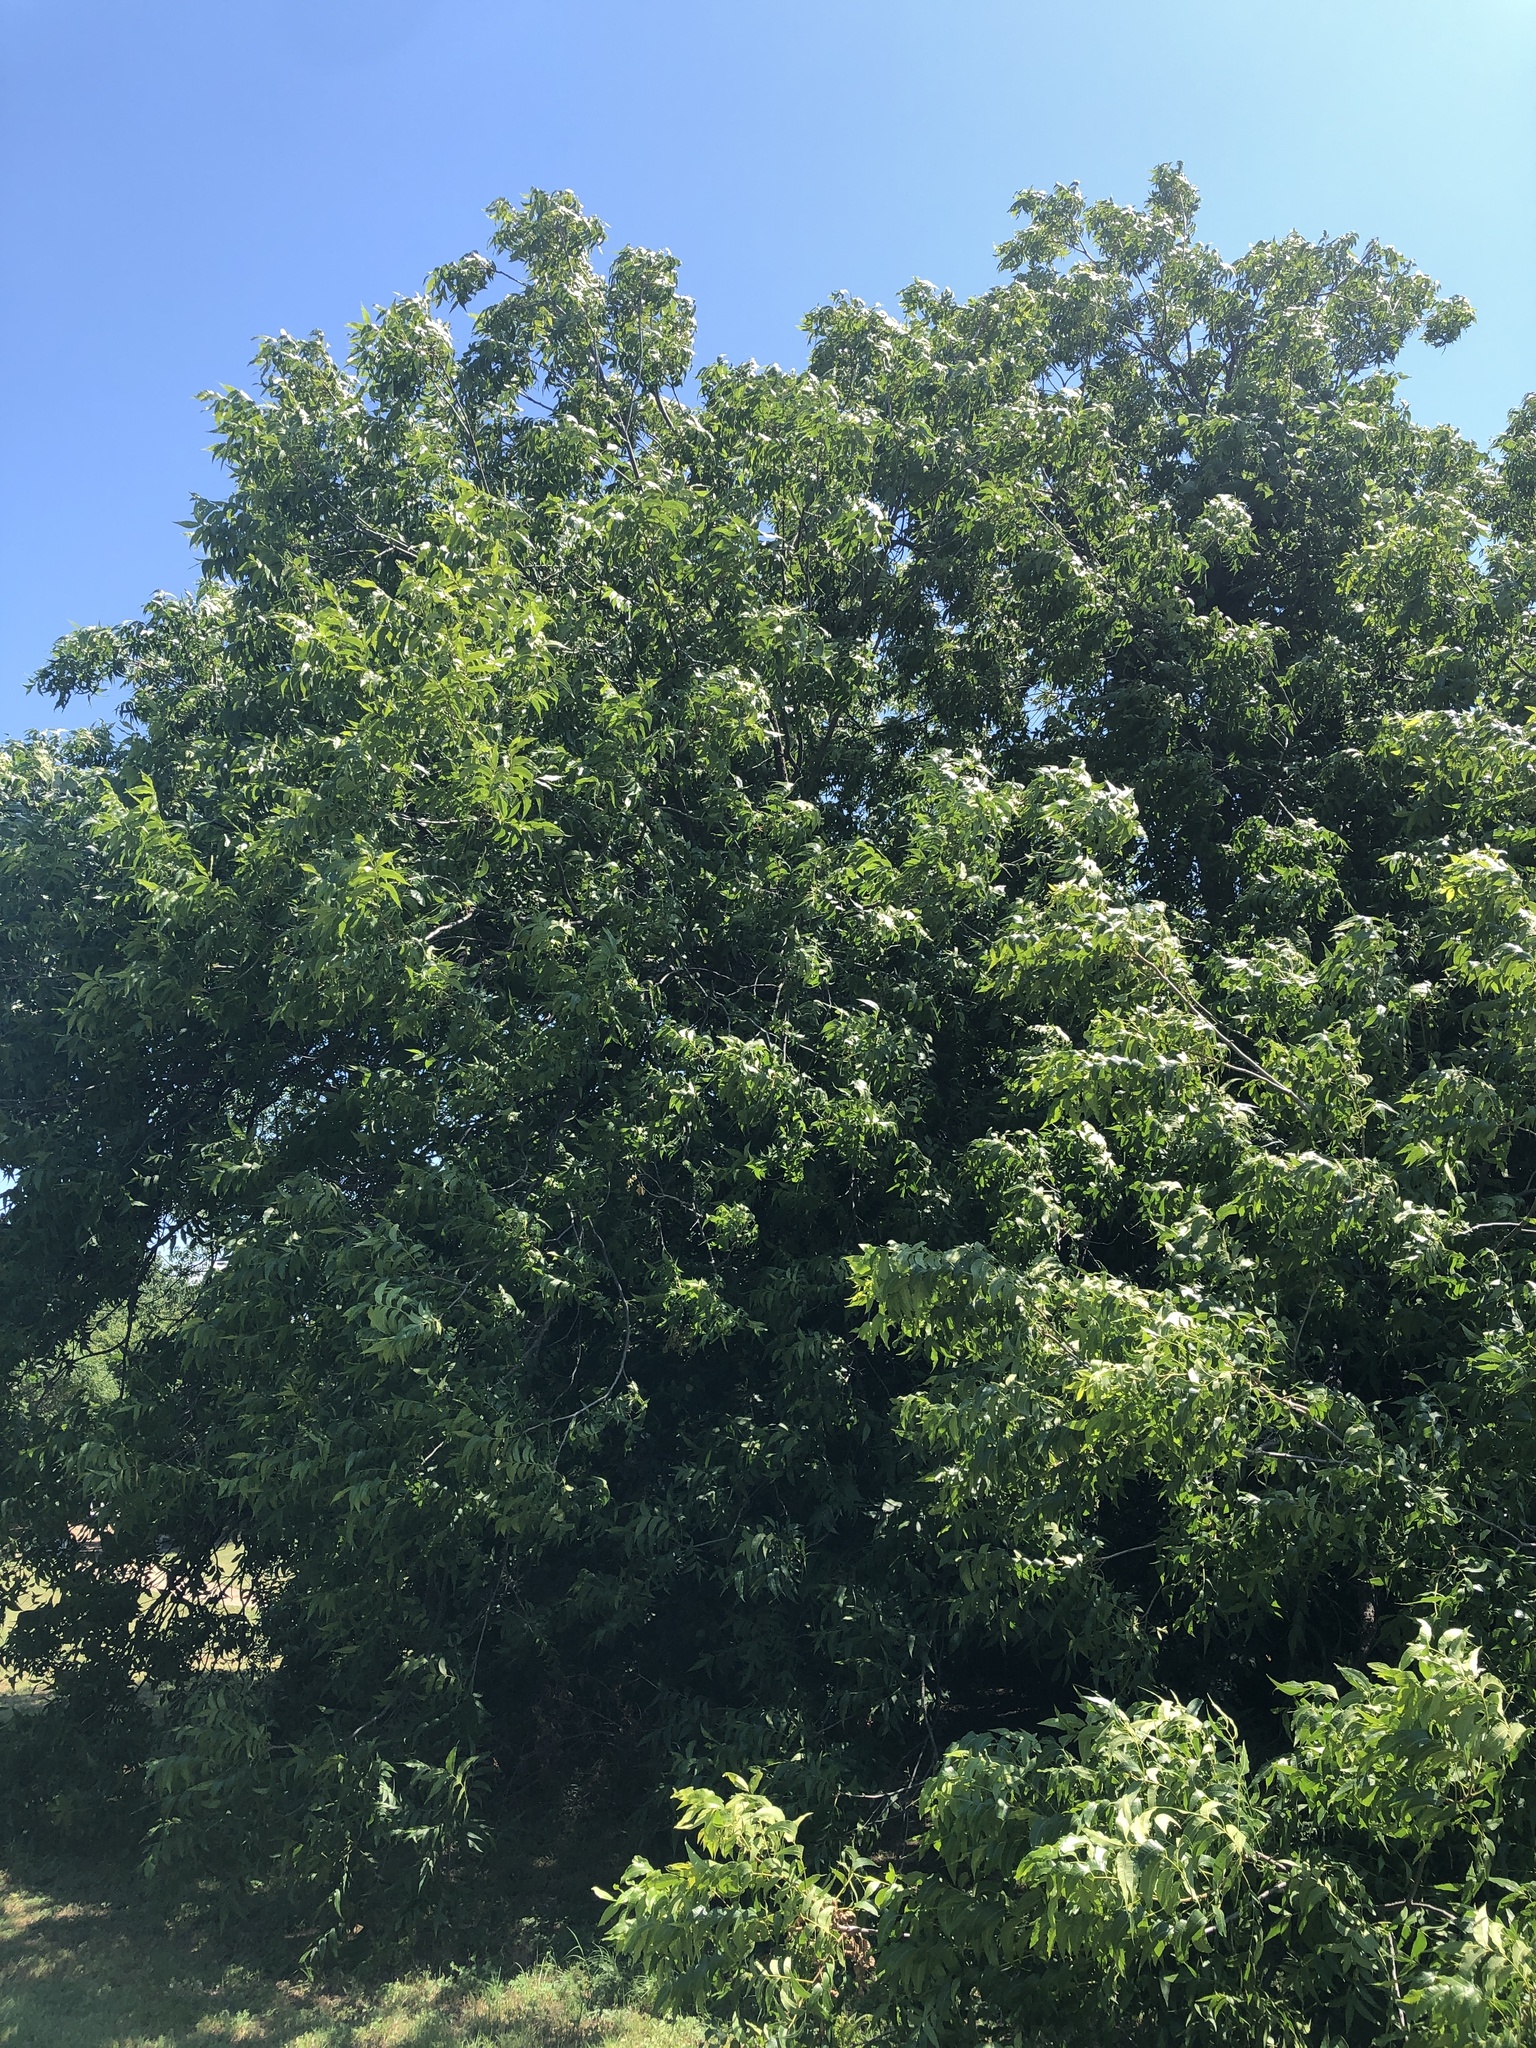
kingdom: Plantae
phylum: Tracheophyta
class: Magnoliopsida
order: Fagales
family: Juglandaceae
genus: Carya
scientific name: Carya illinoinensis
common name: Pecan
